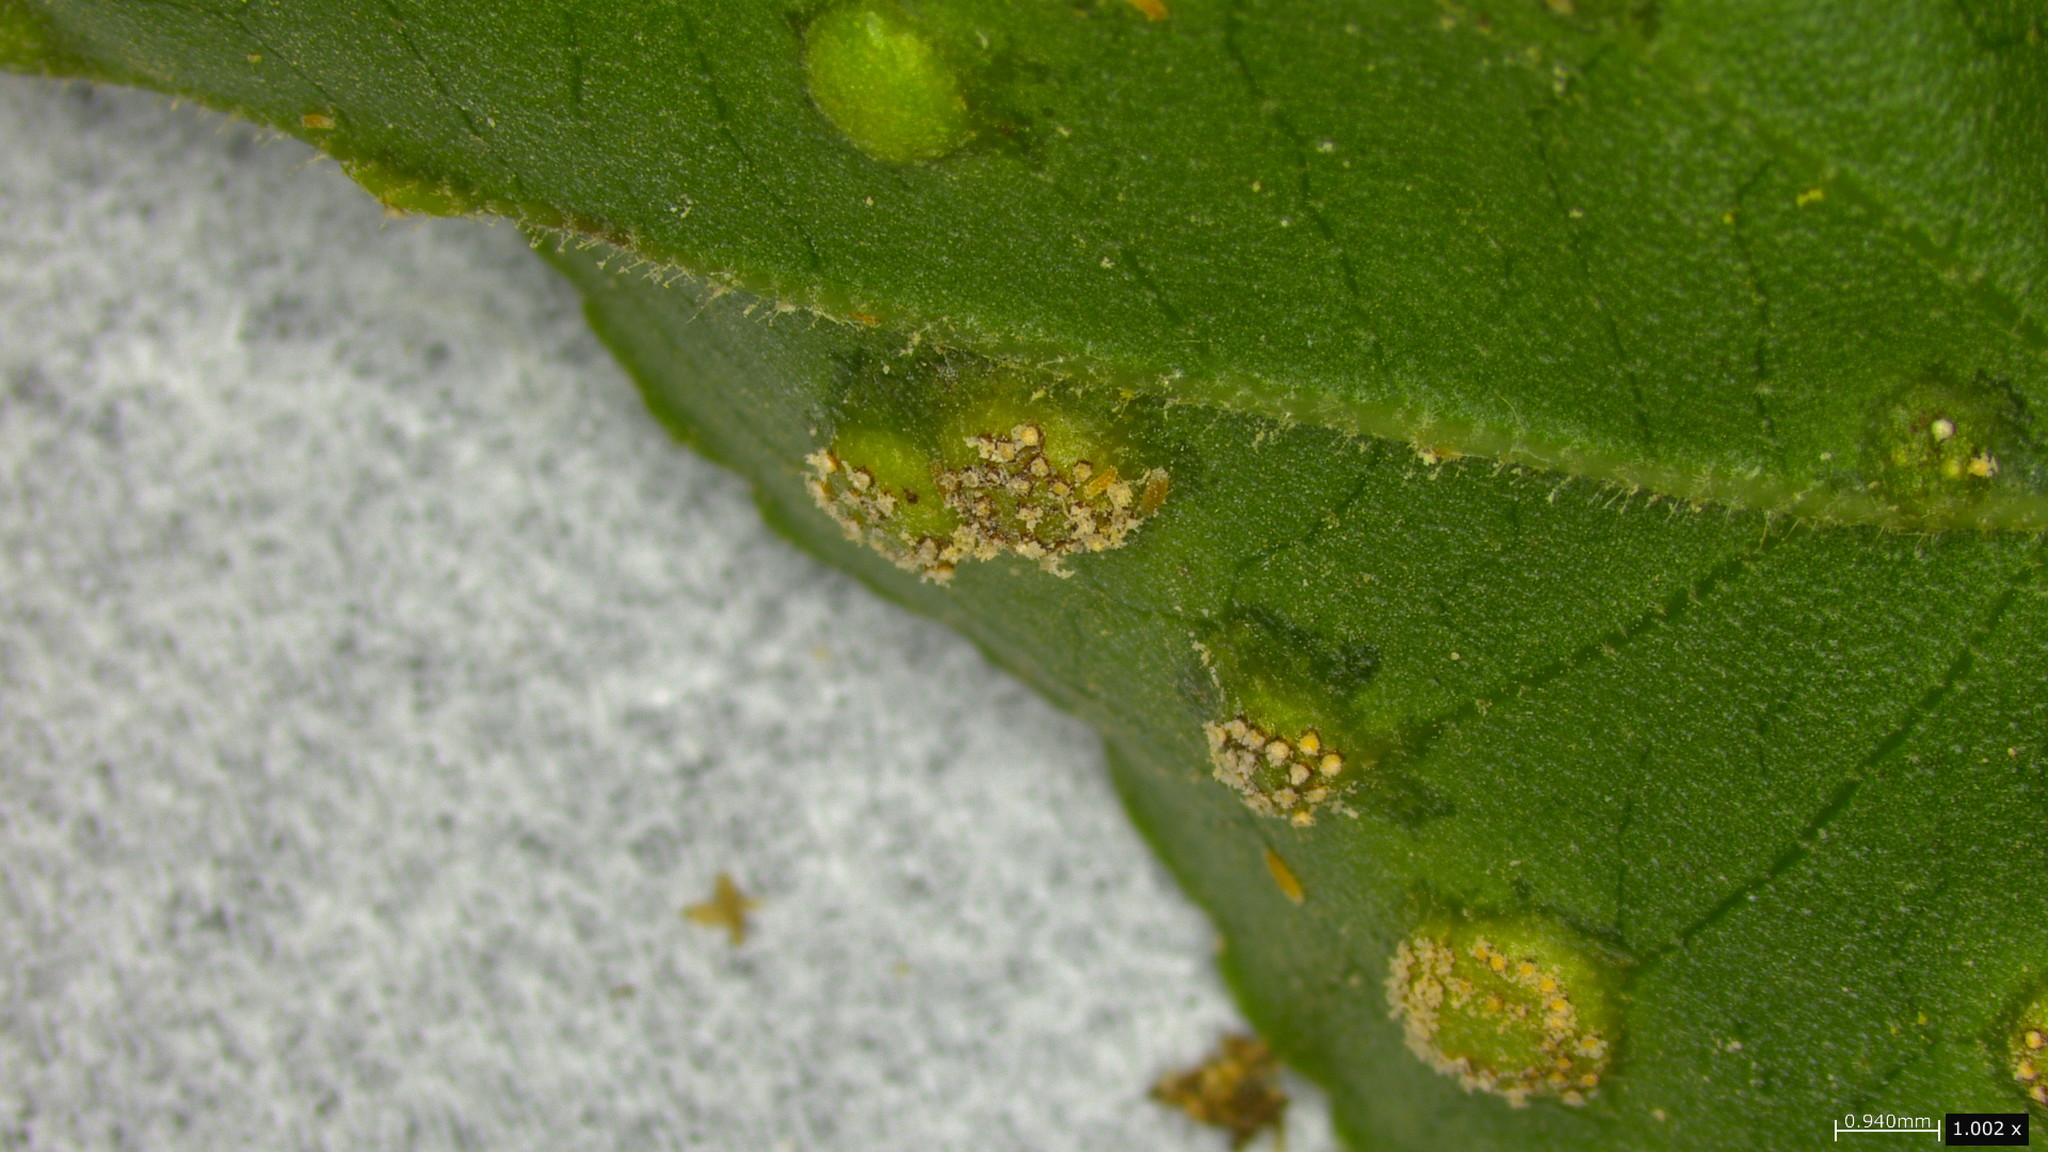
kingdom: Fungi
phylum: Basidiomycota
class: Pucciniomycetes
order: Pucciniales
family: Pucciniaceae
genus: Puccinia
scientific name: Puccinia kusanoi
